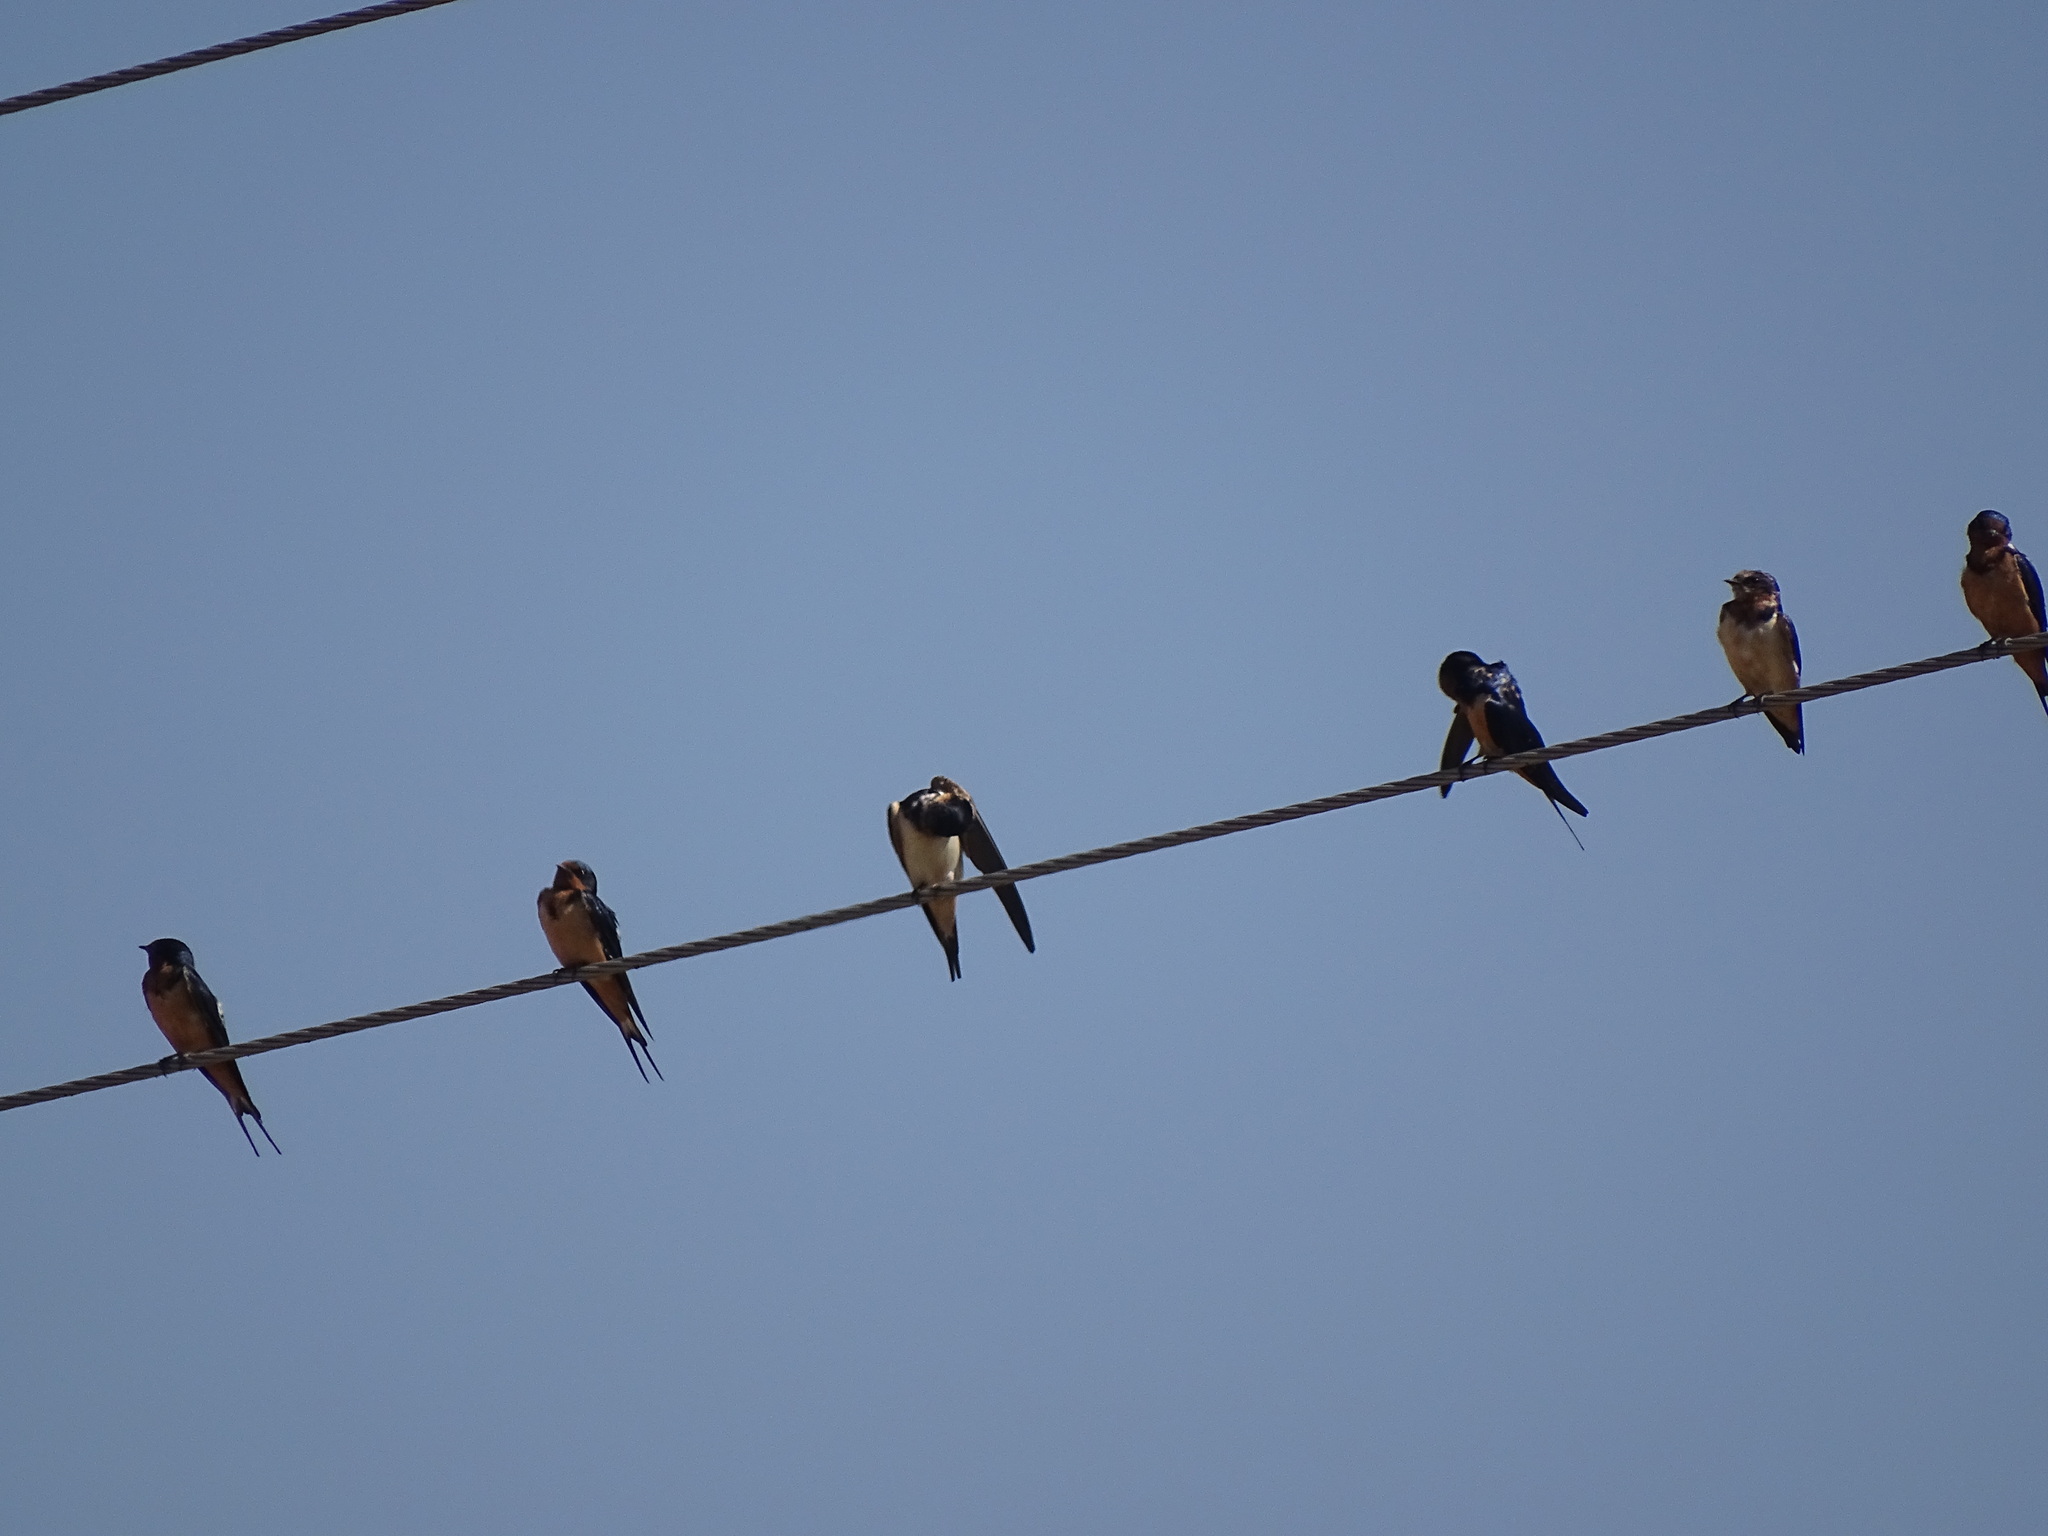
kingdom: Animalia
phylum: Chordata
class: Aves
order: Passeriformes
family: Hirundinidae
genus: Hirundo
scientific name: Hirundo rustica
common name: Barn swallow
